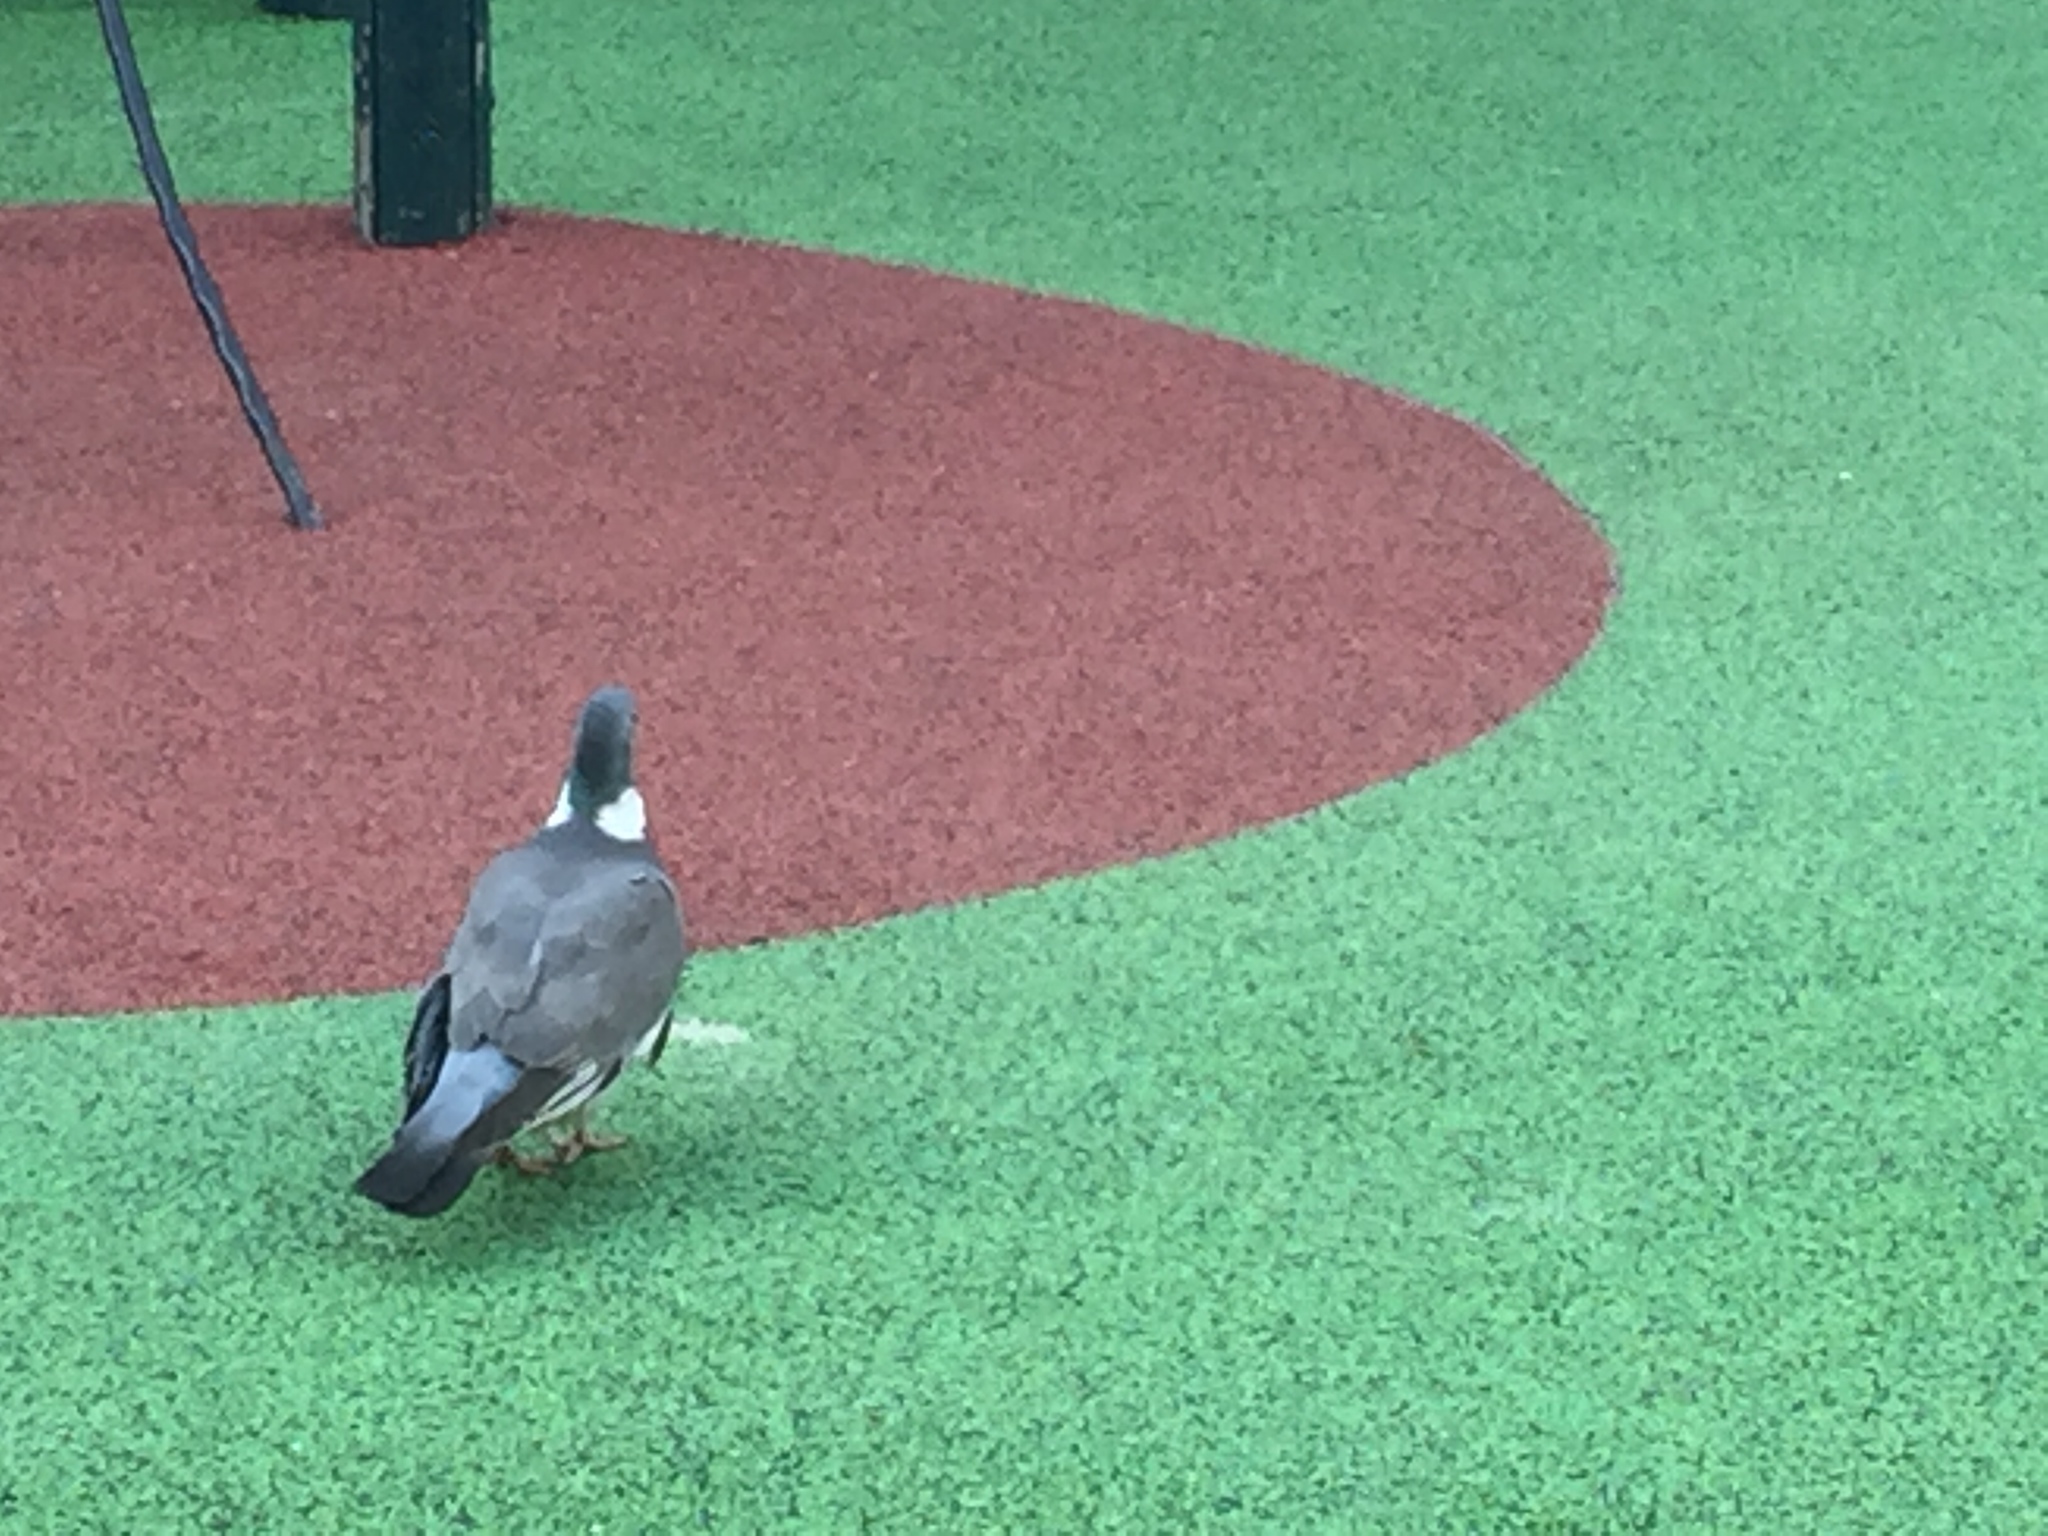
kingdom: Animalia
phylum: Chordata
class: Aves
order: Columbiformes
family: Columbidae
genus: Columba
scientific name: Columba palumbus
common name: Common wood pigeon
